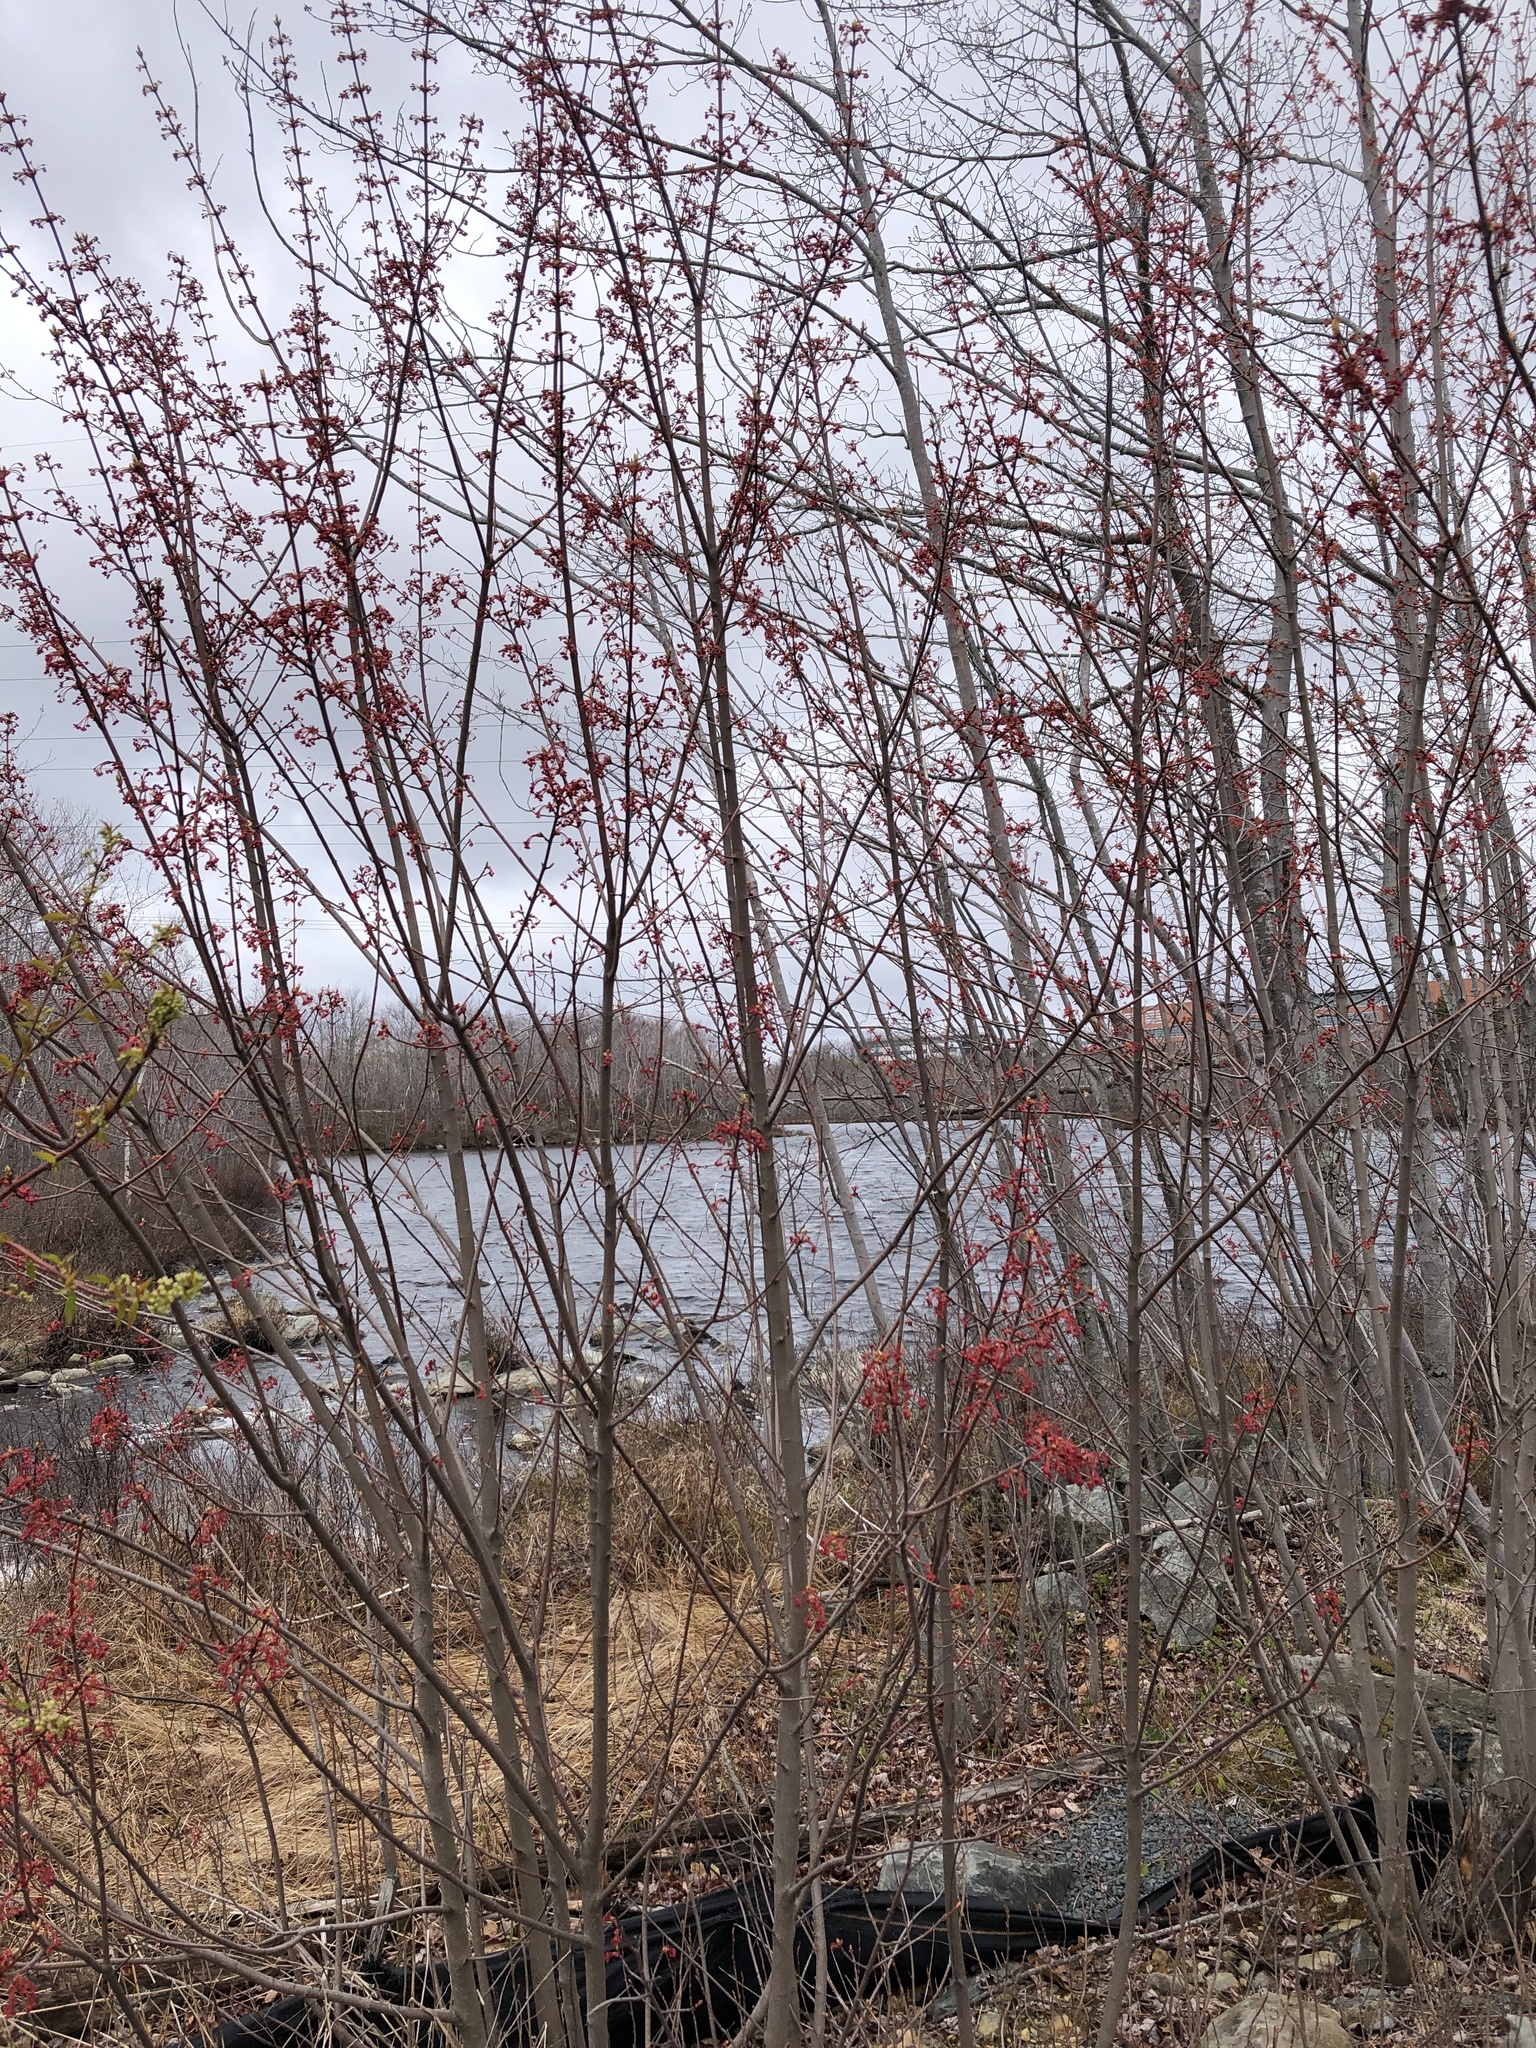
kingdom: Plantae
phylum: Tracheophyta
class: Magnoliopsida
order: Sapindales
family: Sapindaceae
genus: Acer
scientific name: Acer rubrum
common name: Red maple
